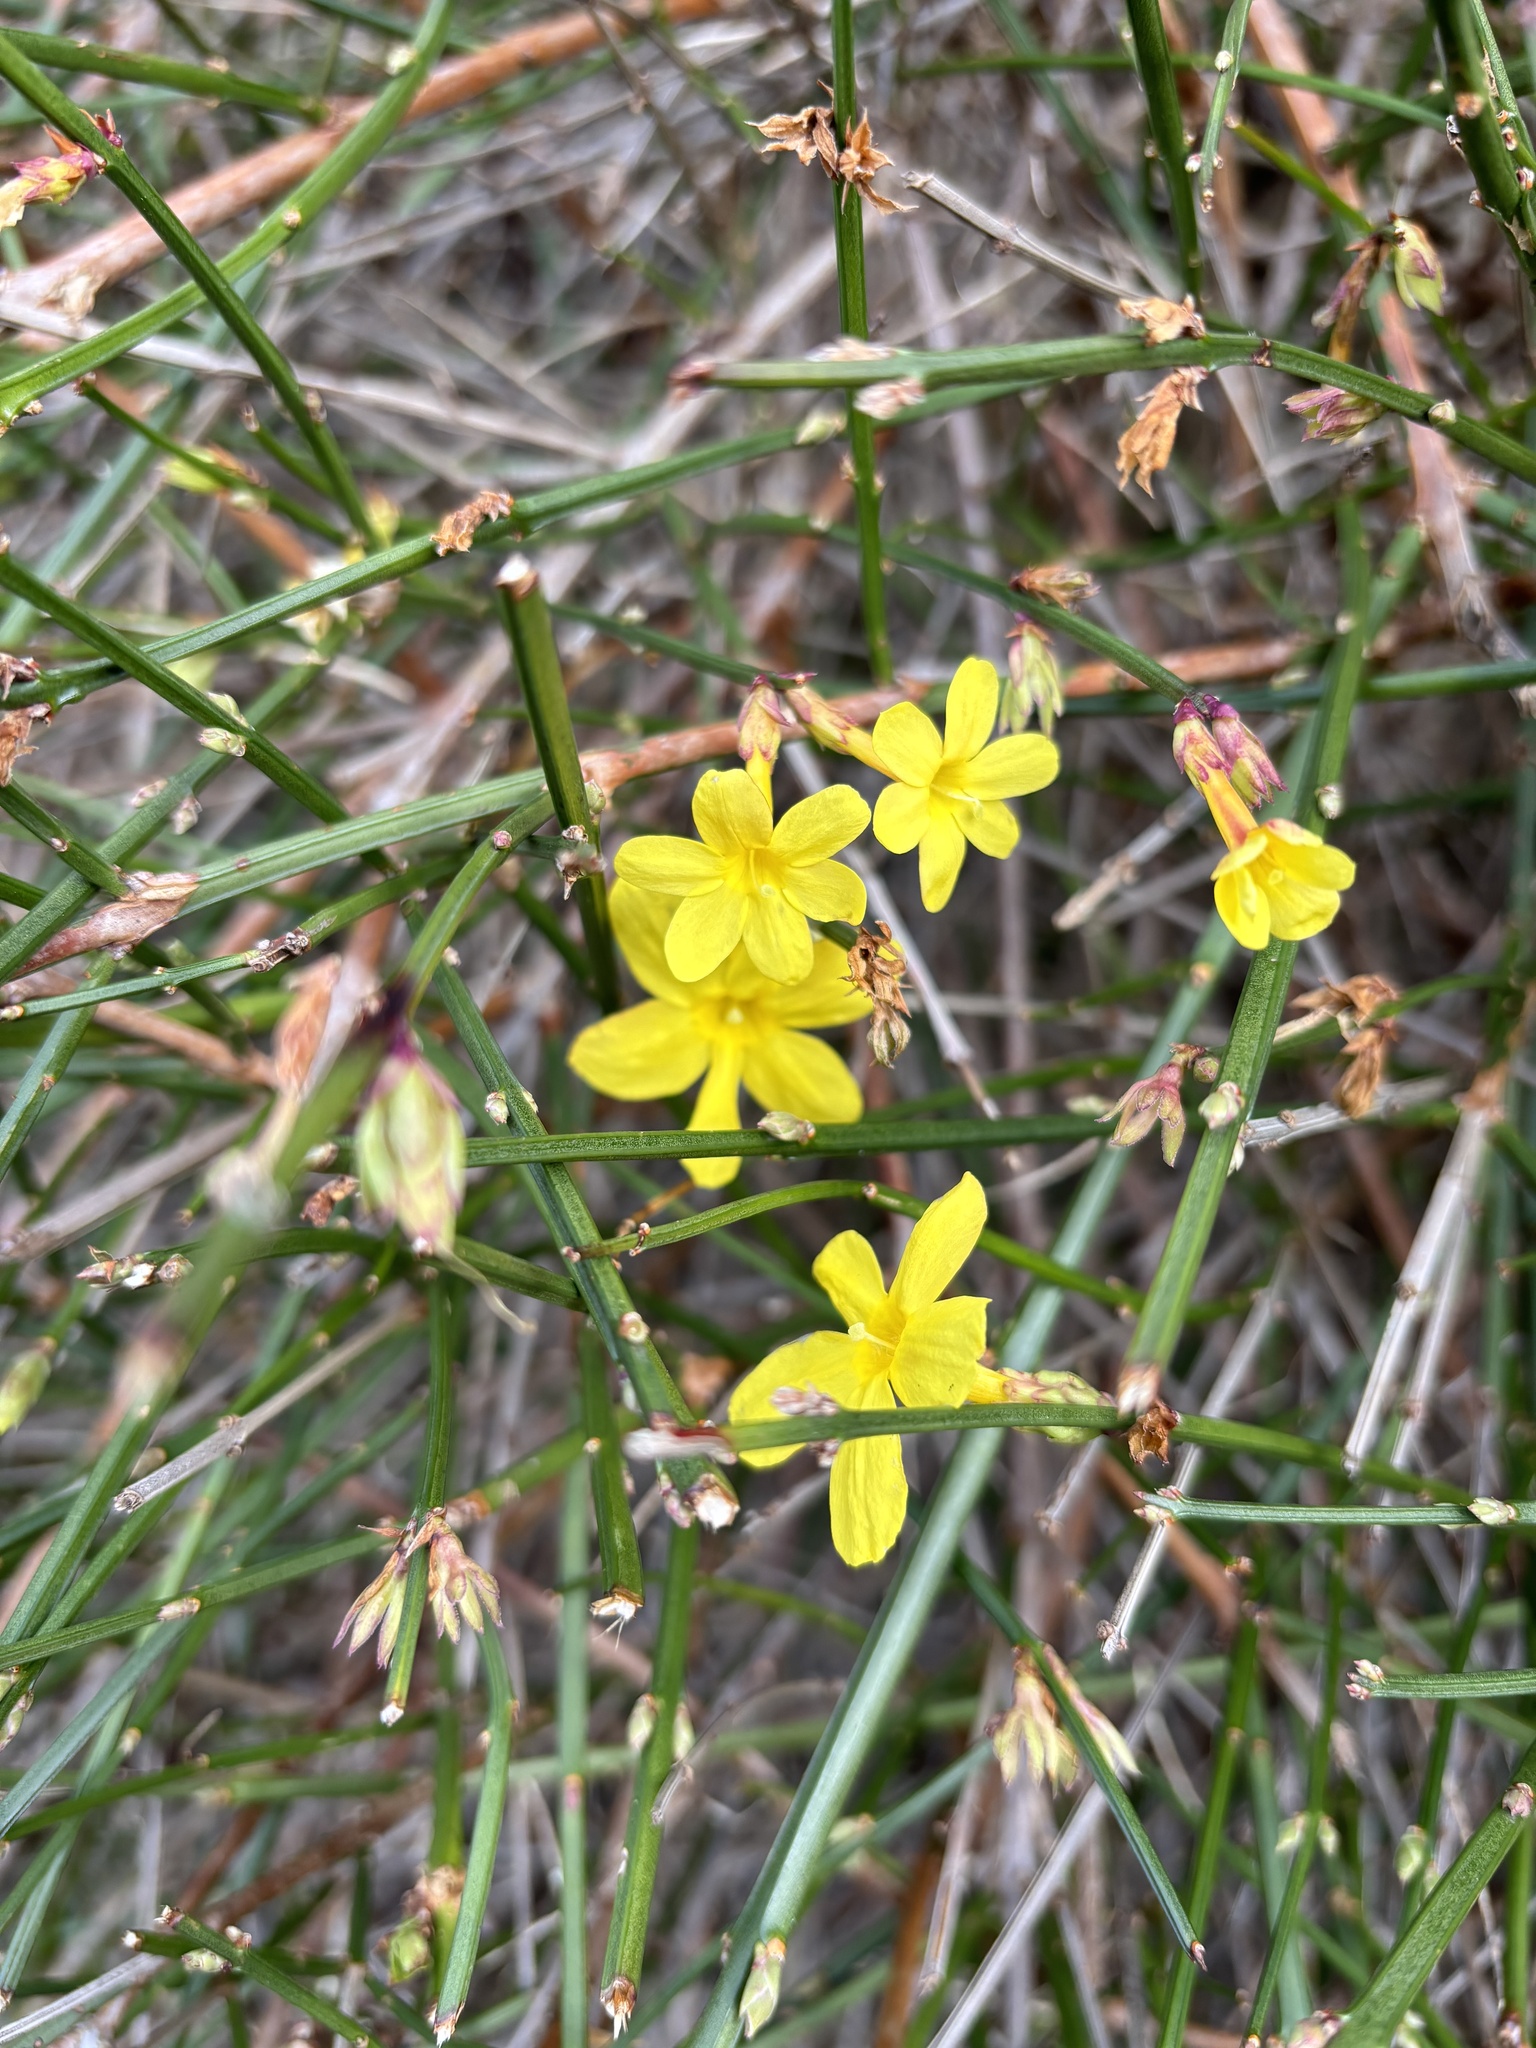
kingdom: Plantae
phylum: Tracheophyta
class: Magnoliopsida
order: Lamiales
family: Oleaceae
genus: Jasminum
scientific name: Jasminum nudiflorum
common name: Winter jasmine
